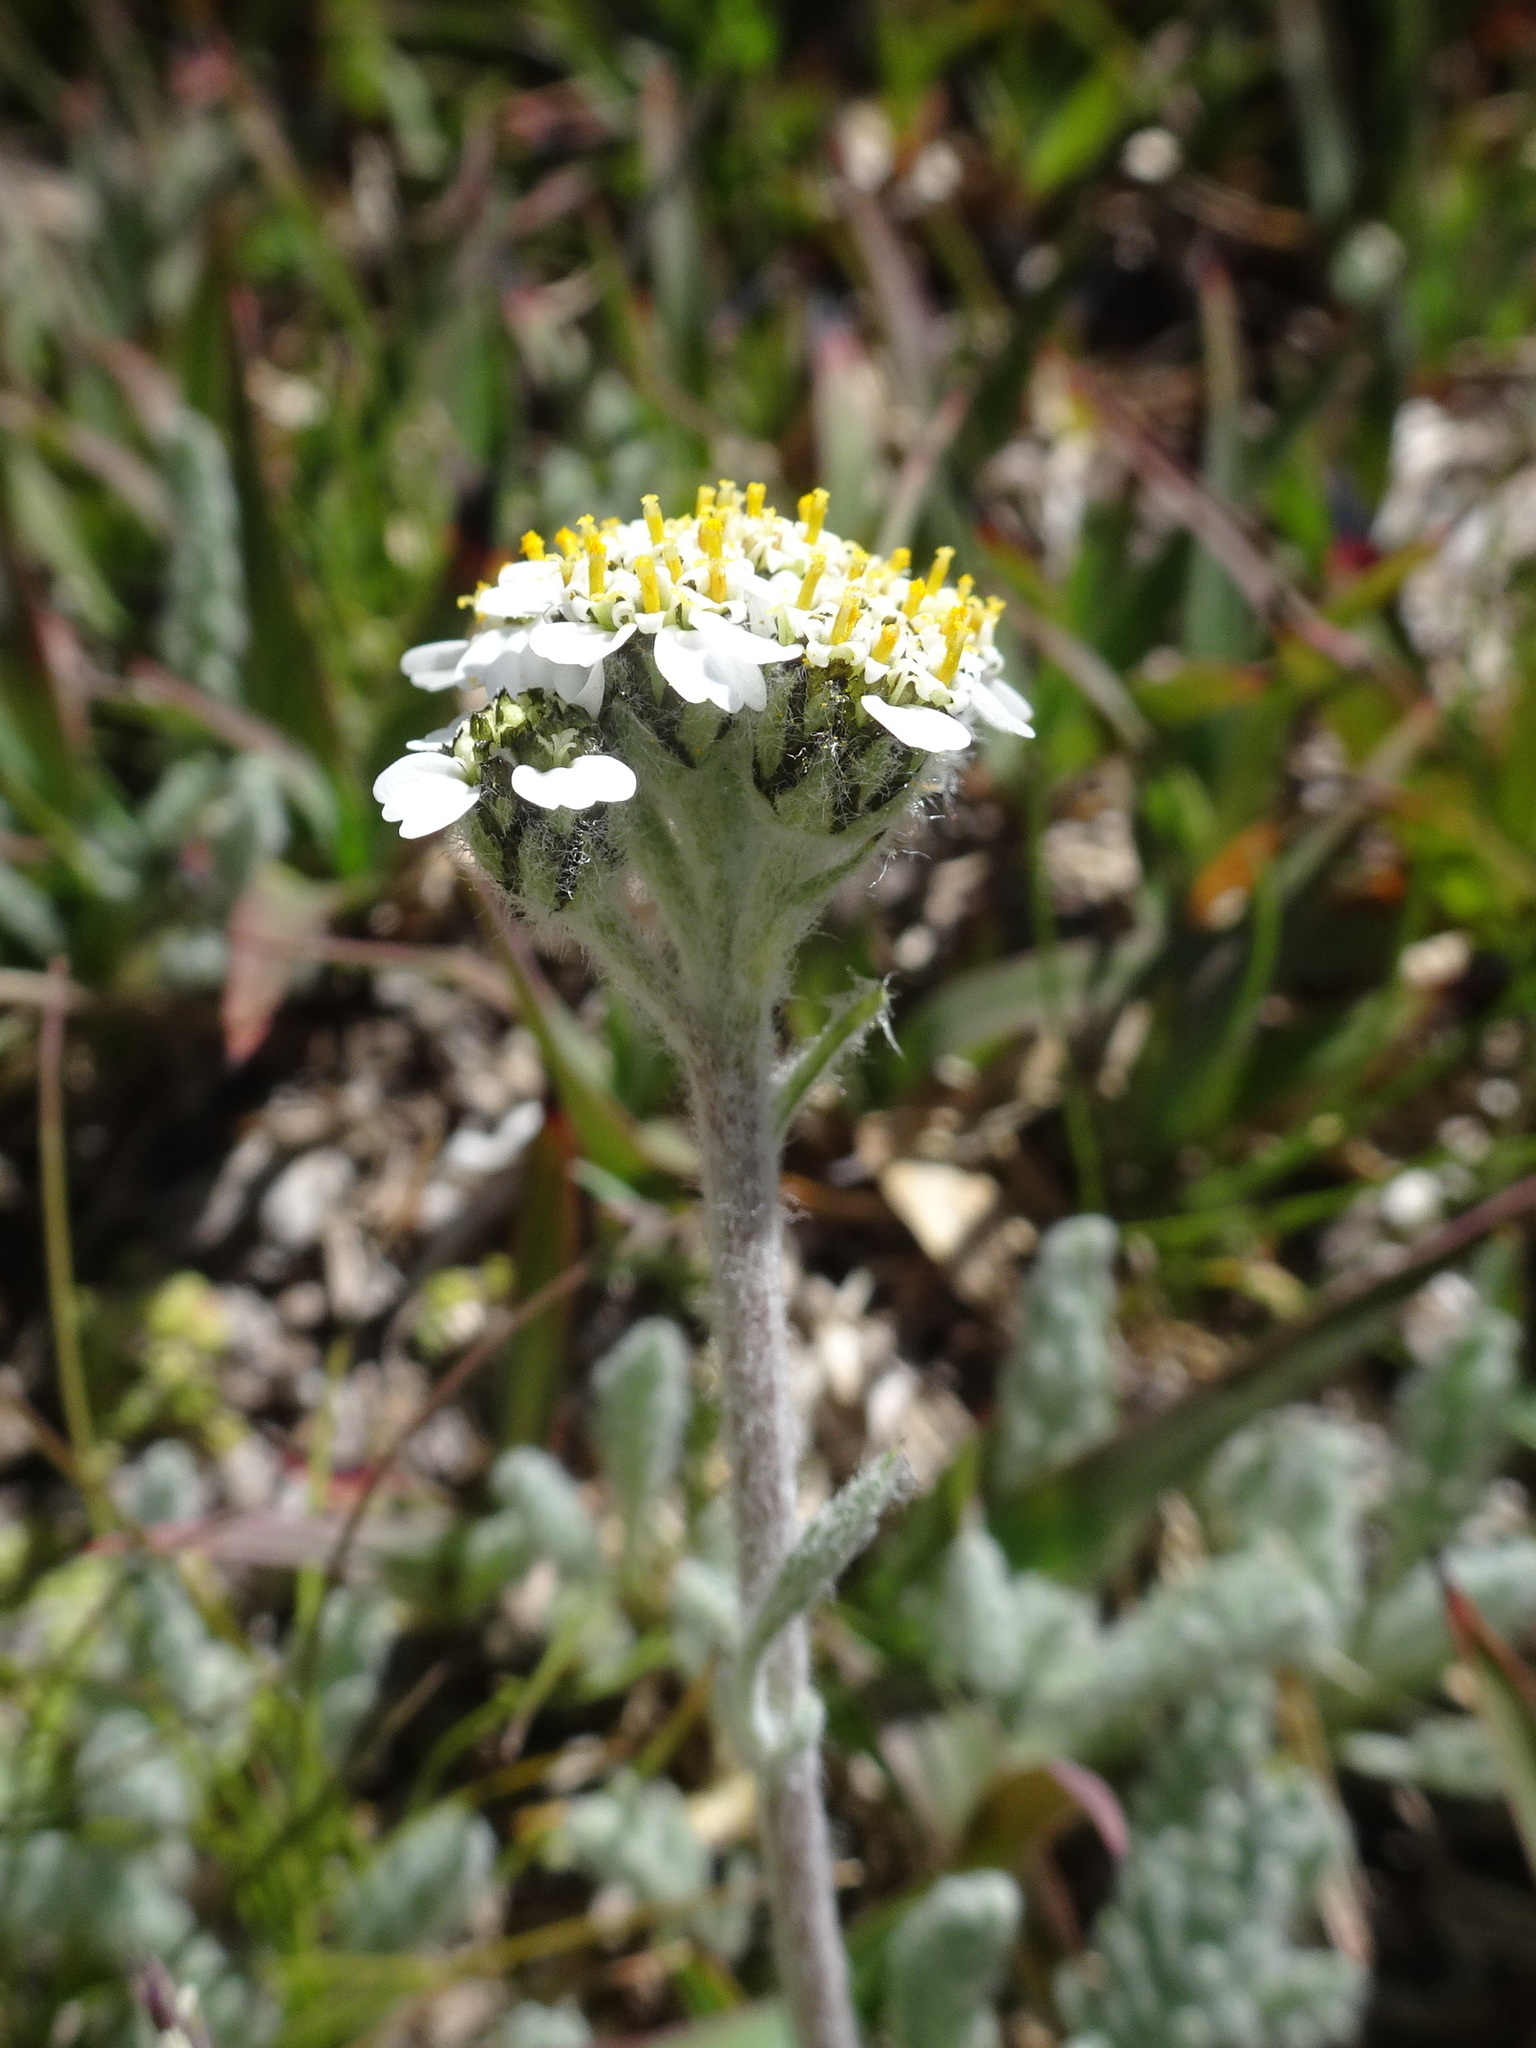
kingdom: Plantae
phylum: Tracheophyta
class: Magnoliopsida
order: Asterales
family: Asteraceae
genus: Achillea
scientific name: Achillea nana
